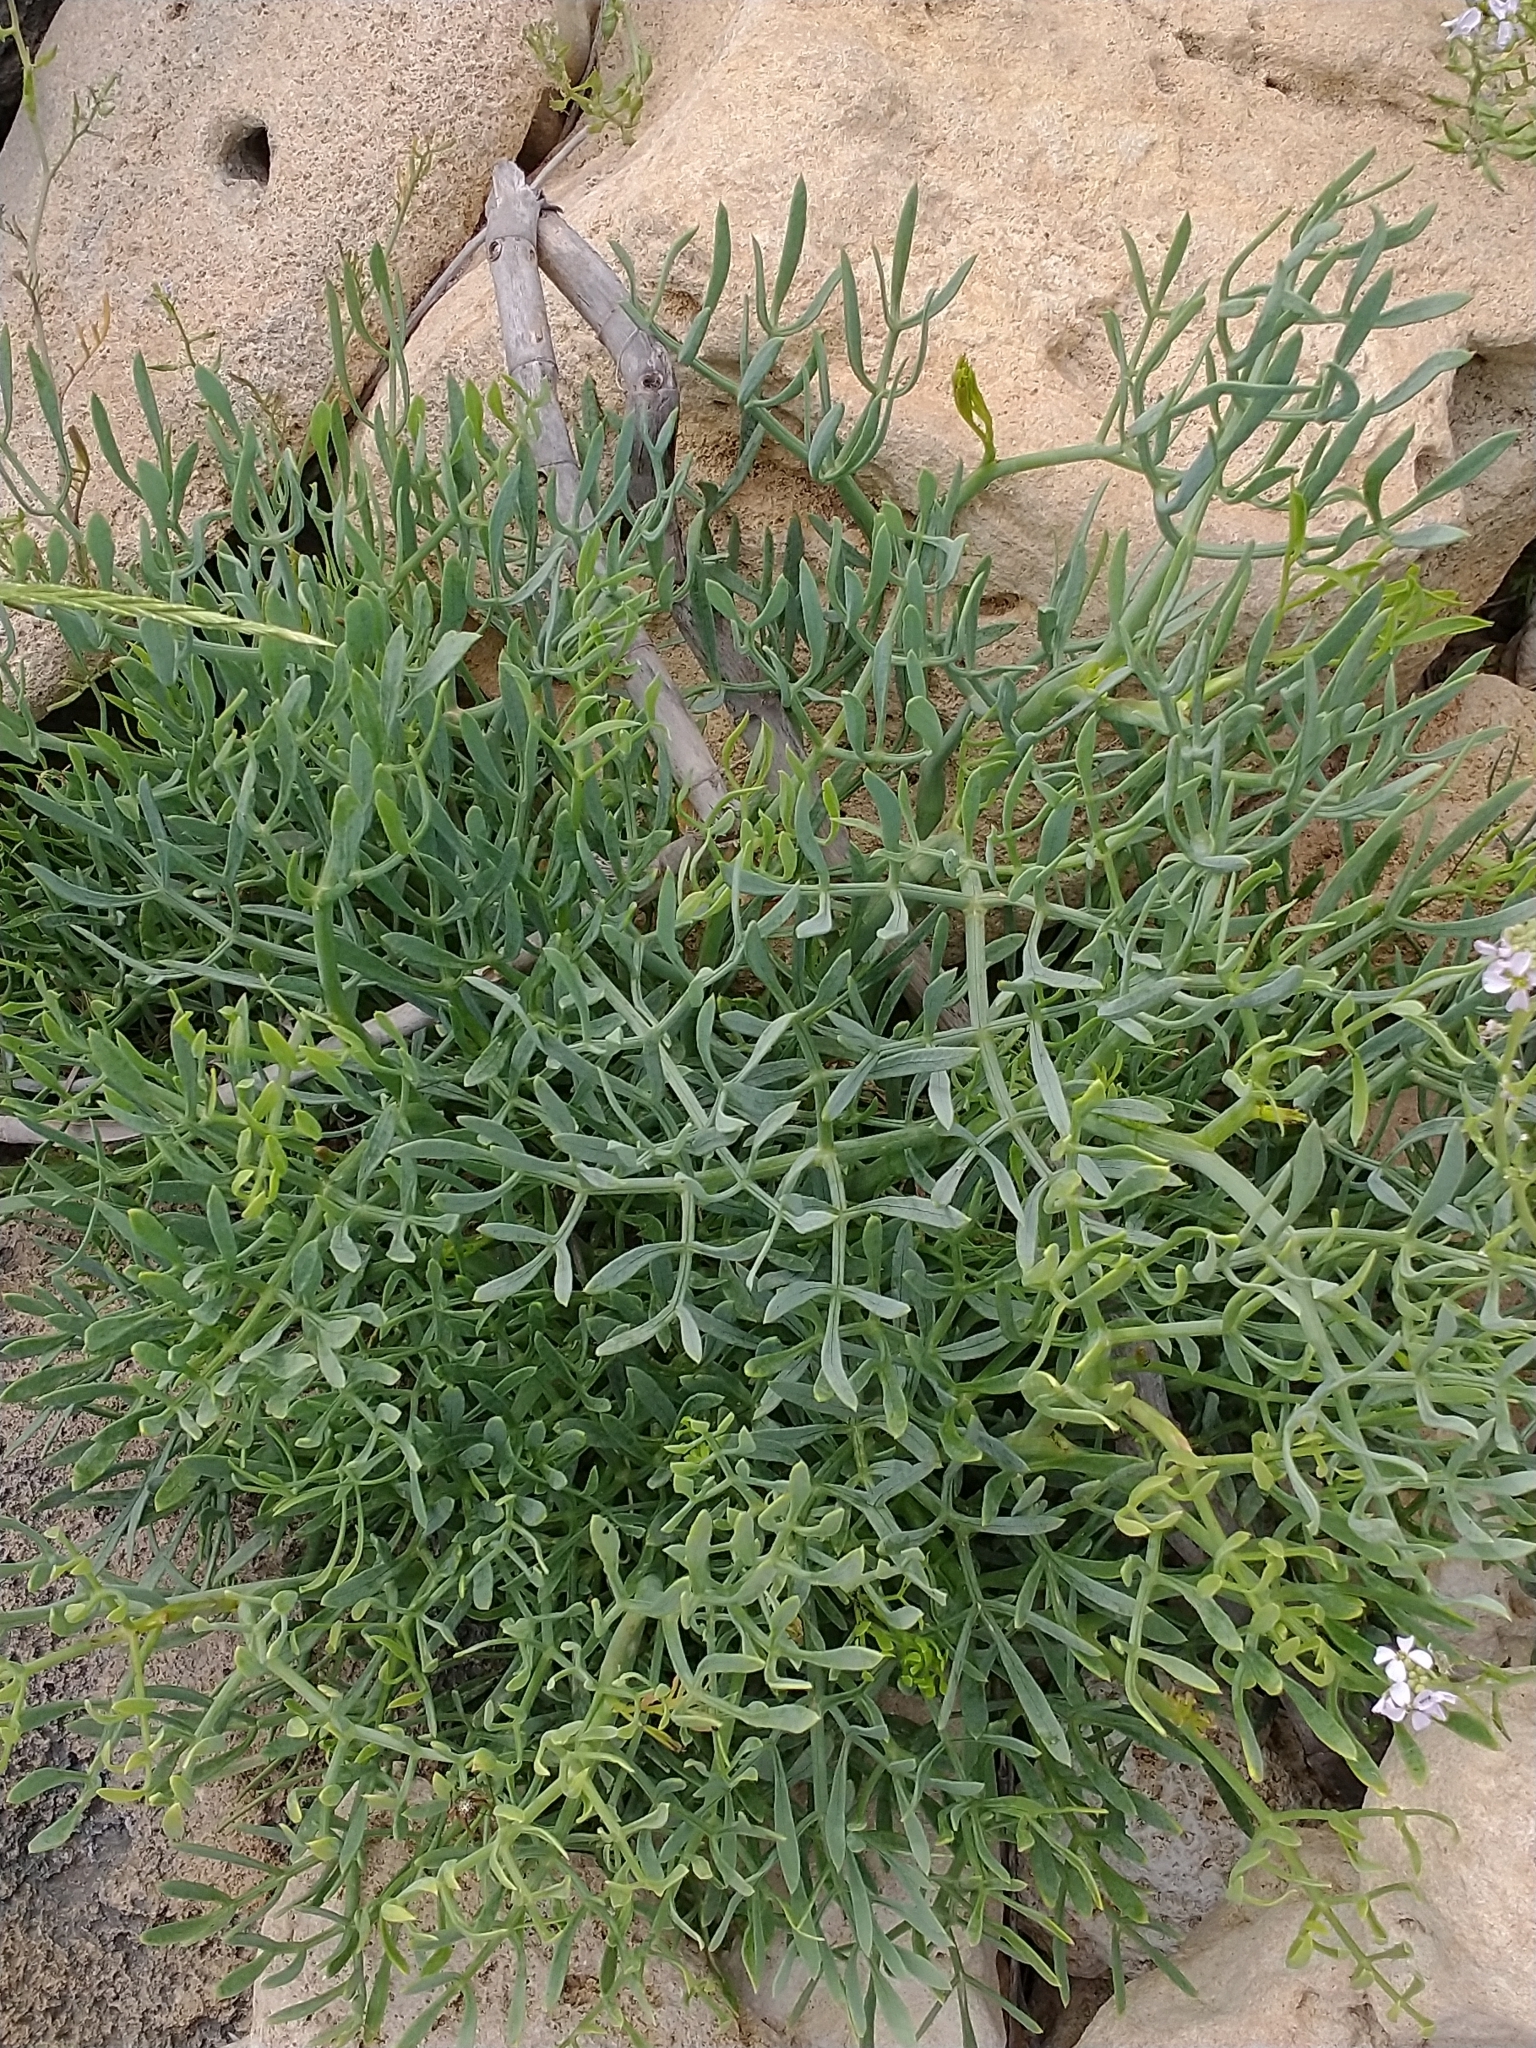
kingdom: Plantae
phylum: Tracheophyta
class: Magnoliopsida
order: Apiales
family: Apiaceae
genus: Crithmum
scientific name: Crithmum maritimum
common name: Rock samphire
